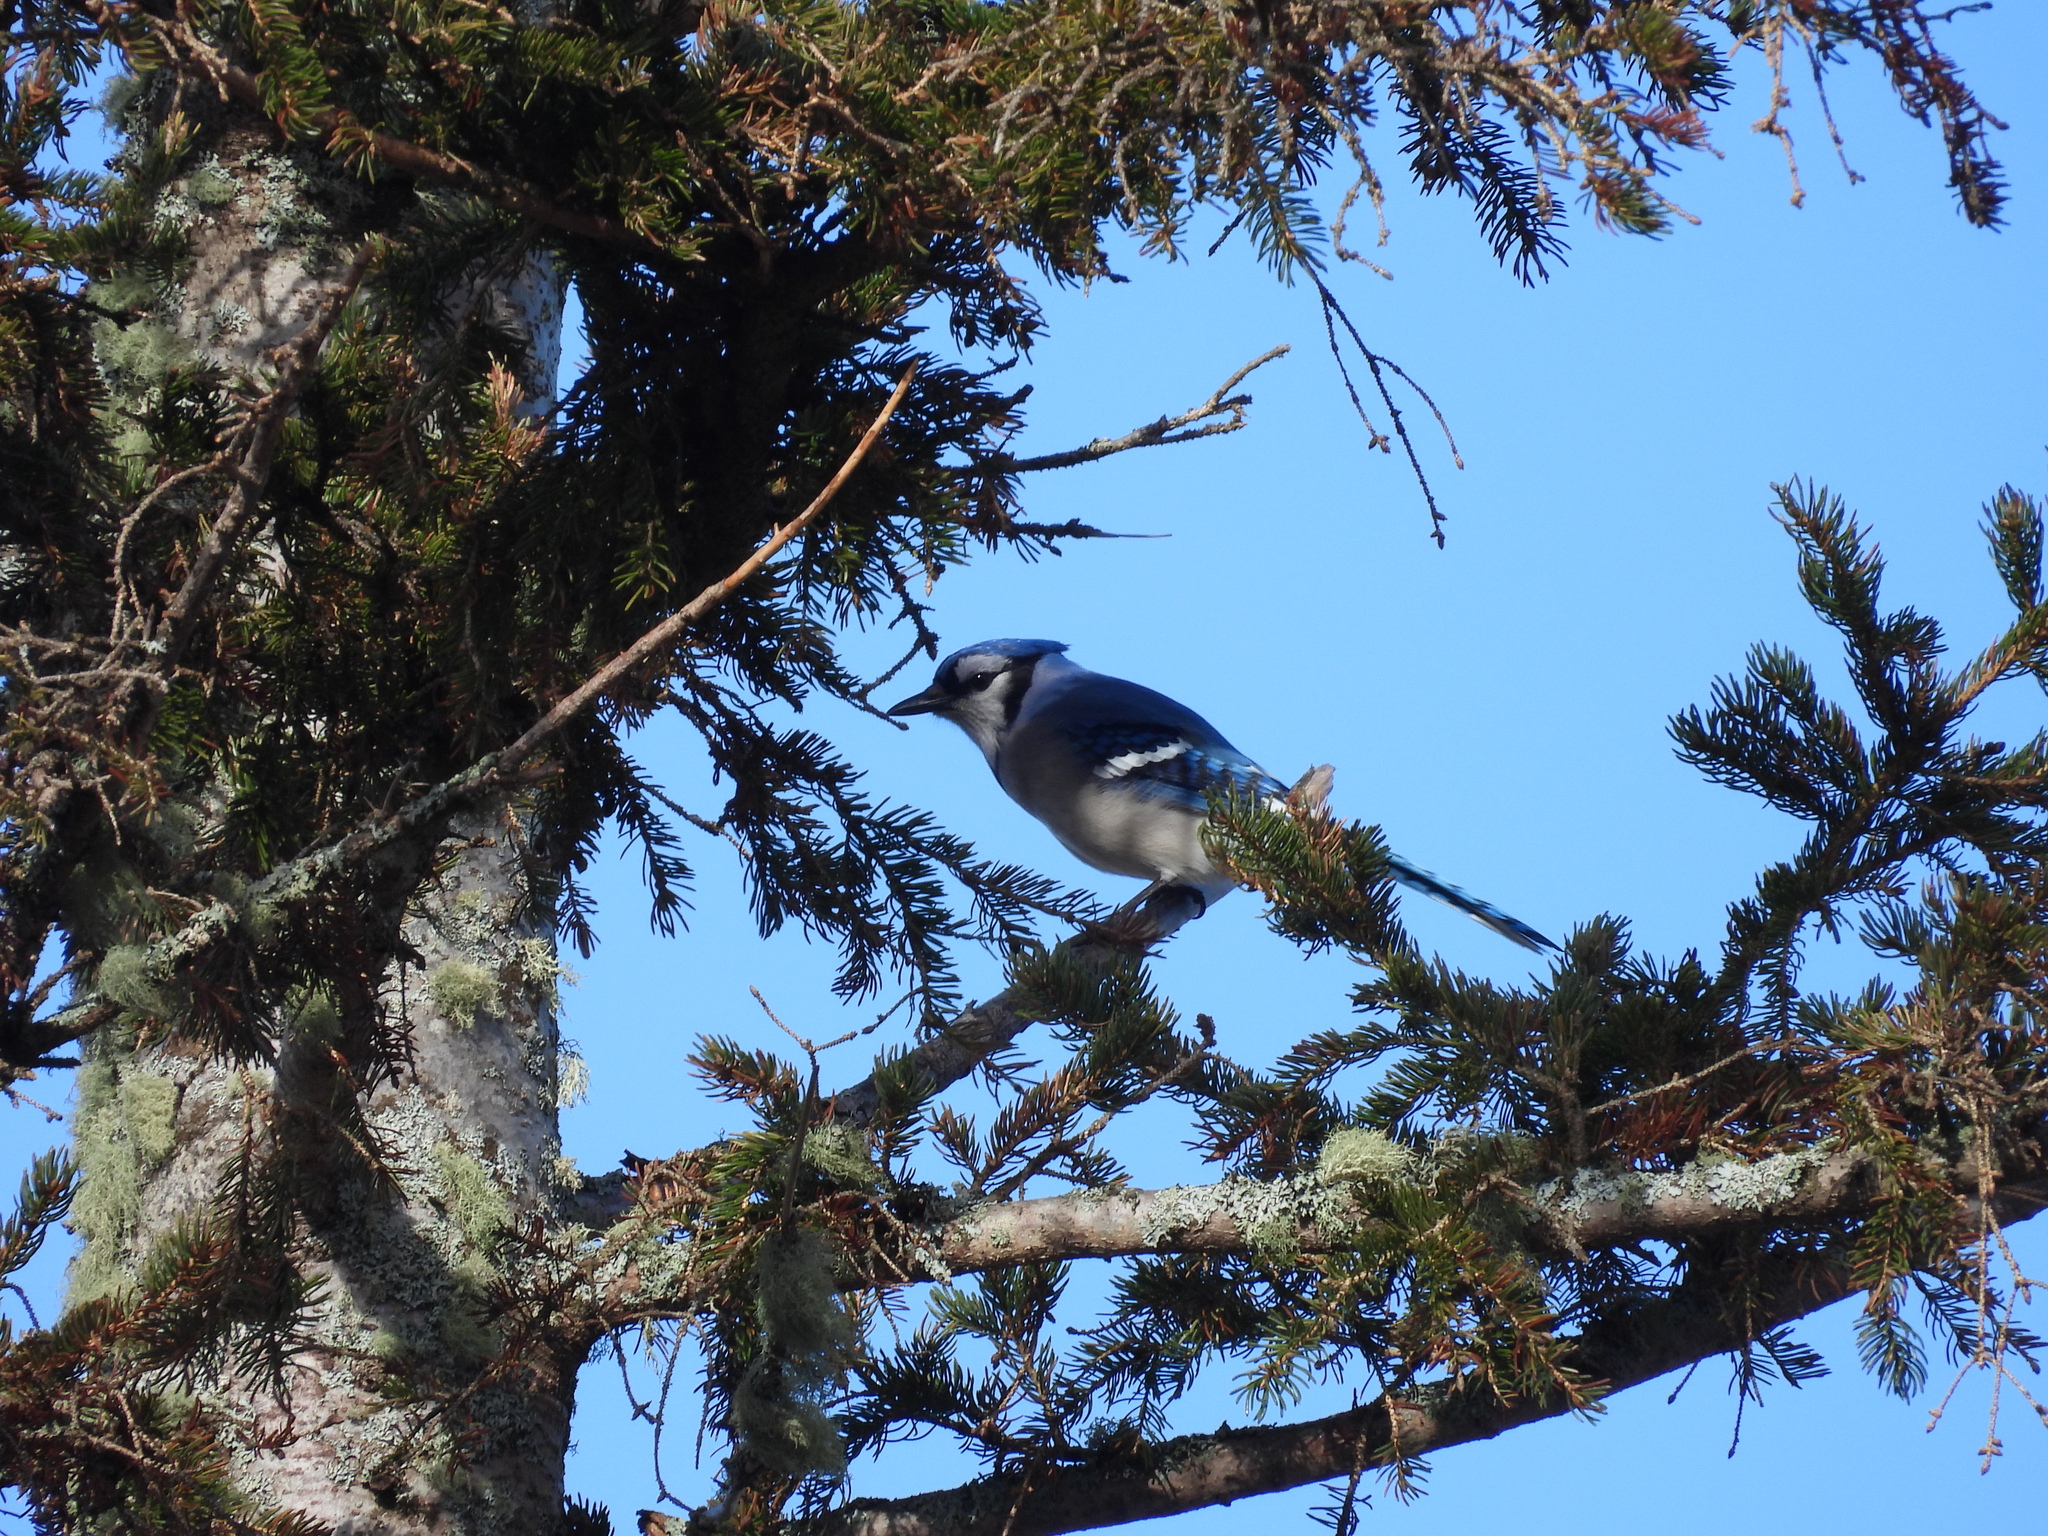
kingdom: Animalia
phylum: Chordata
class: Aves
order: Passeriformes
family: Corvidae
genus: Cyanocitta
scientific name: Cyanocitta cristata
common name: Blue jay
